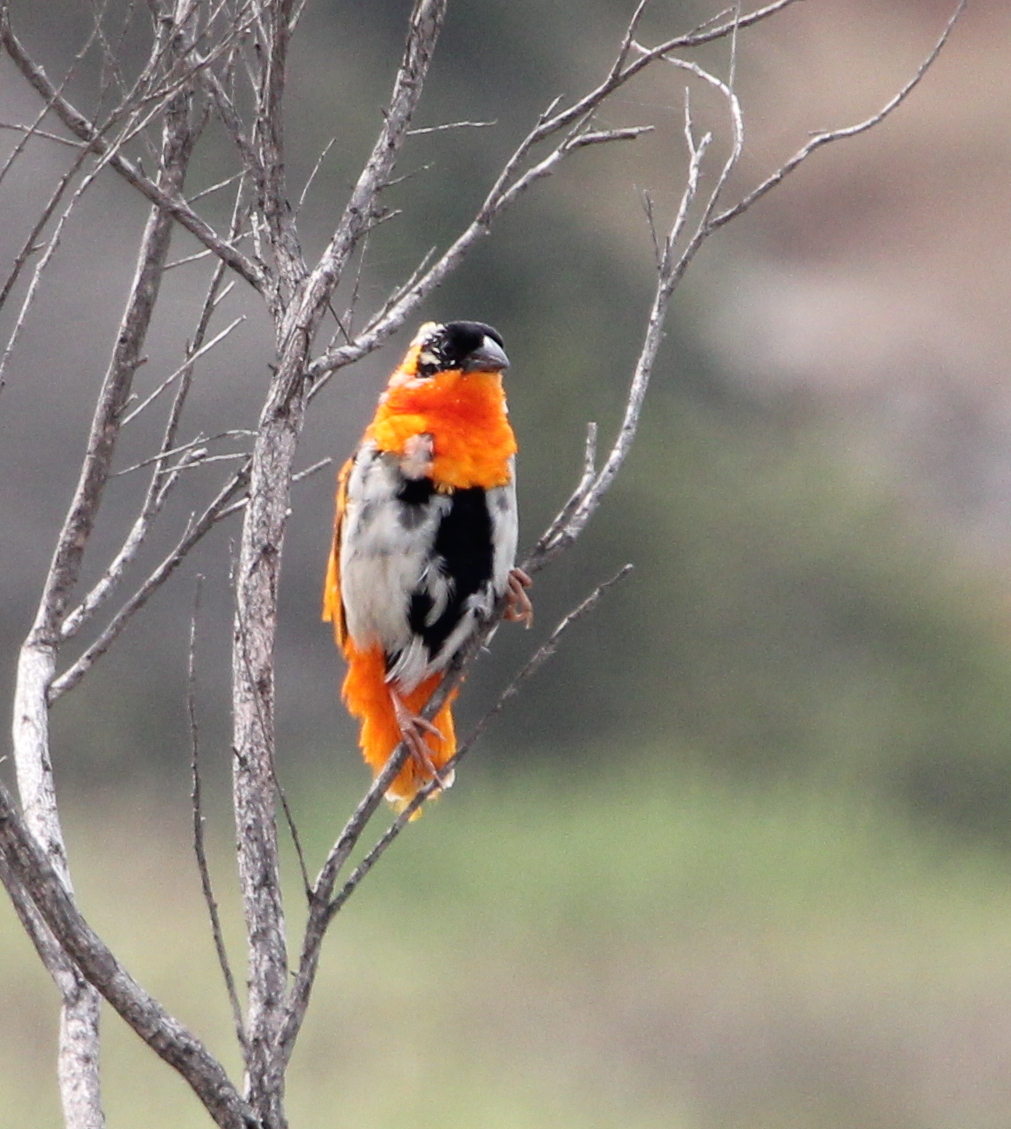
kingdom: Animalia
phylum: Chordata
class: Aves
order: Passeriformes
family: Ploceidae
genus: Euplectes
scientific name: Euplectes franciscanus
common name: Northern red bishop
